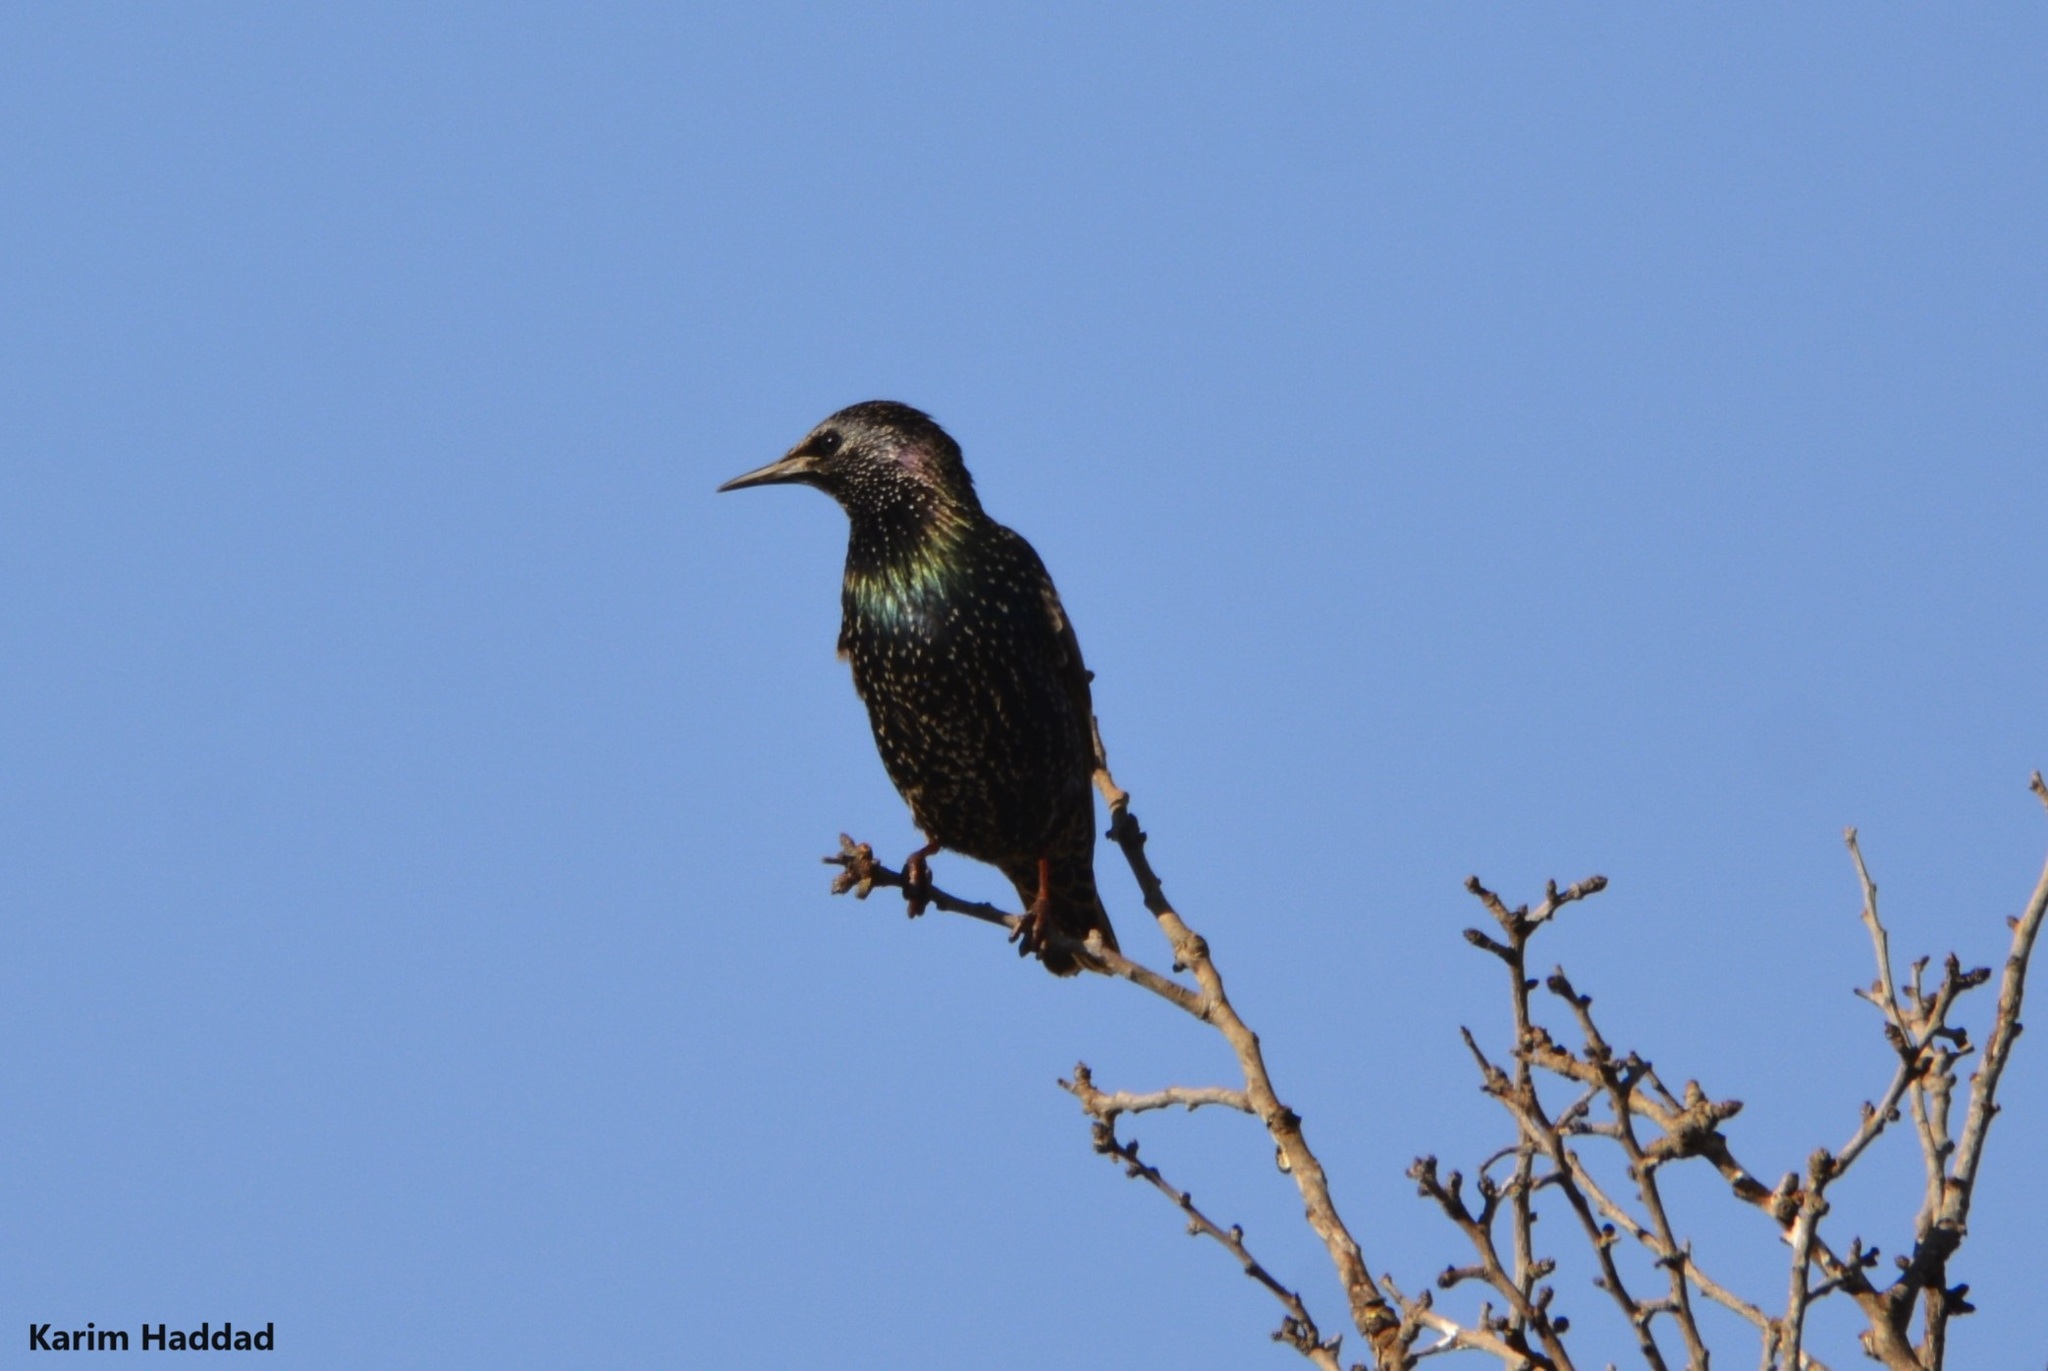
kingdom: Animalia
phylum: Chordata
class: Aves
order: Passeriformes
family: Sturnidae
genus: Sturnus
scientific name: Sturnus vulgaris
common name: Common starling
